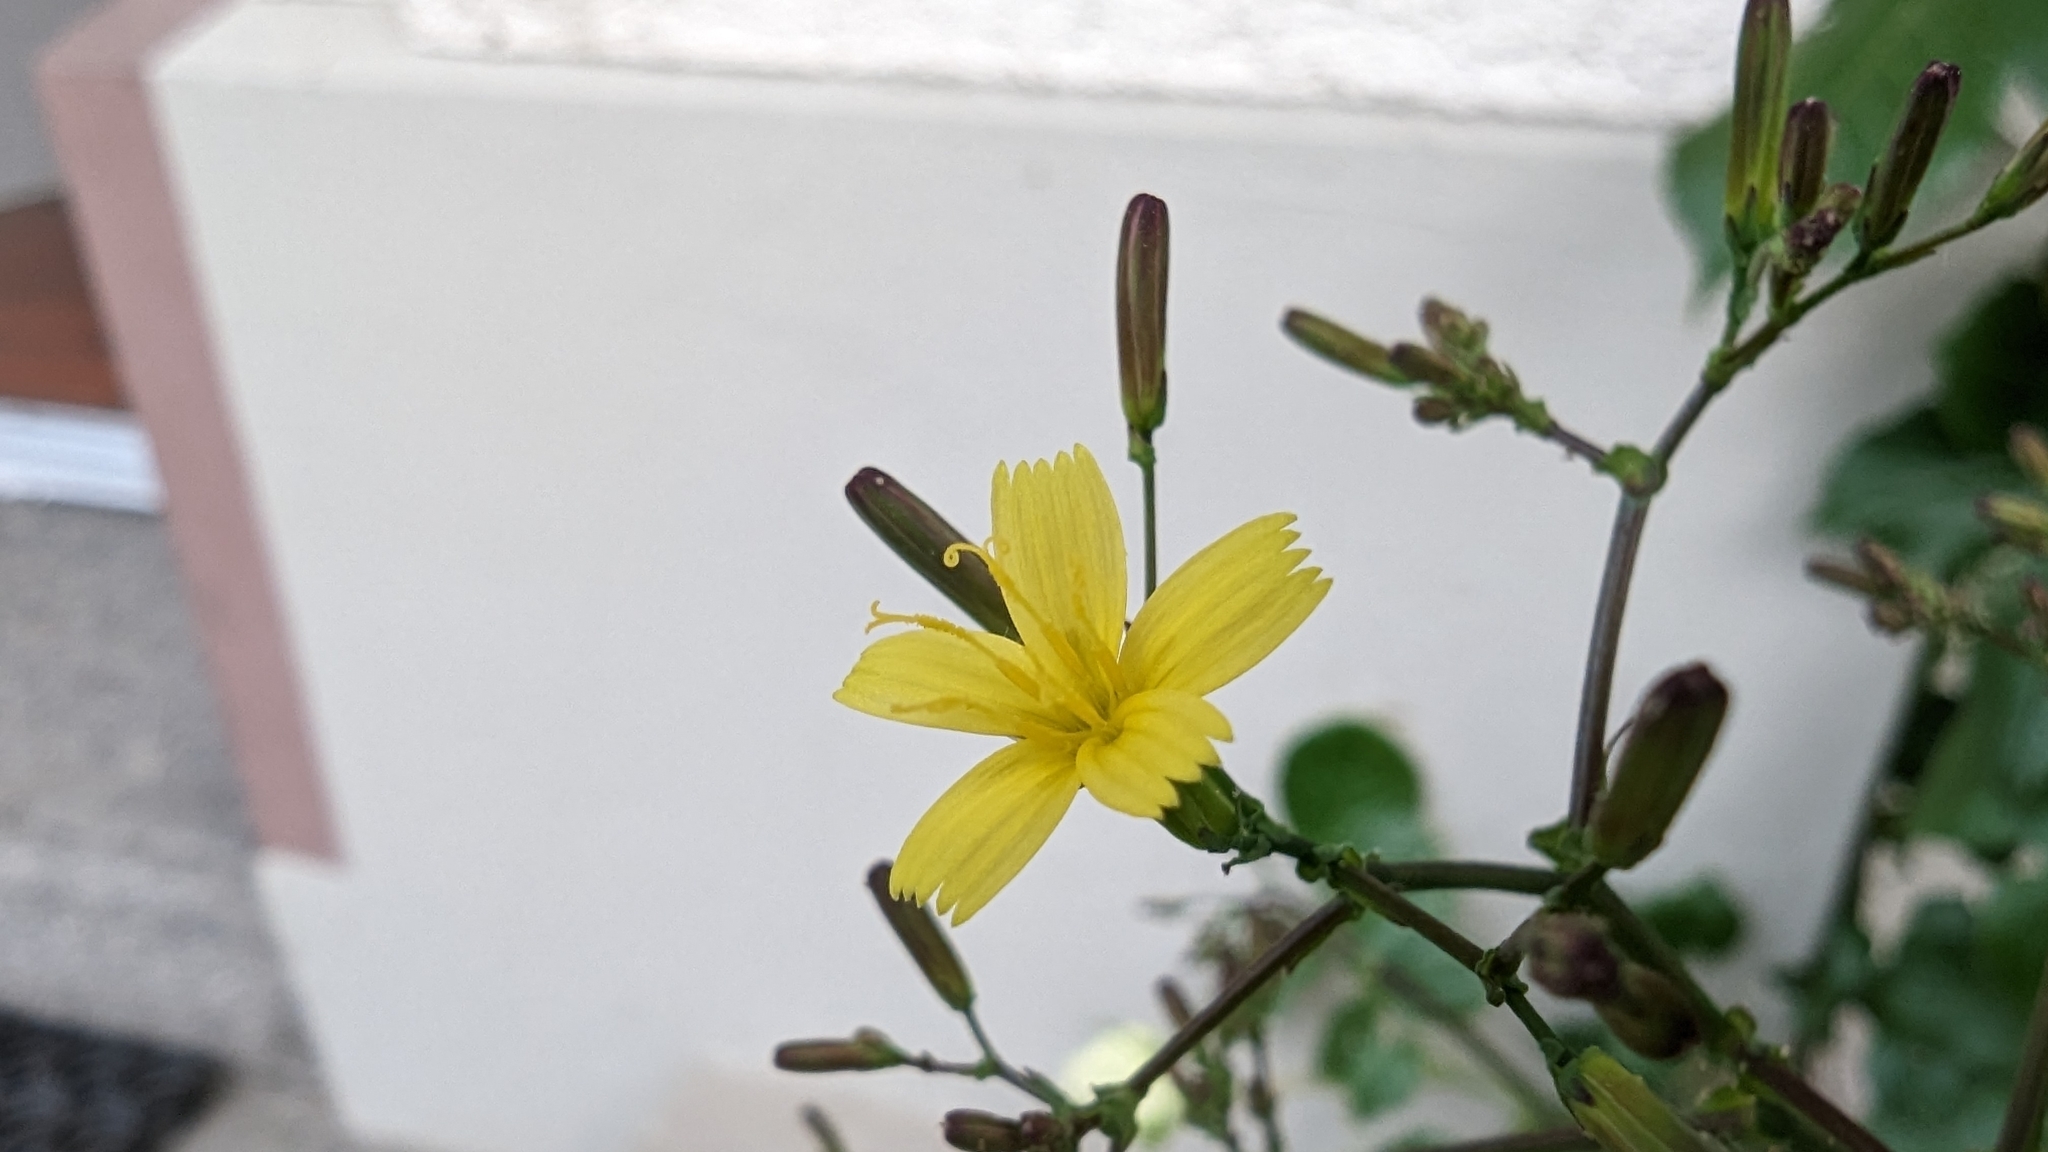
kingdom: Plantae
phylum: Tracheophyta
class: Magnoliopsida
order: Asterales
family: Asteraceae
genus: Mycelis
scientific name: Mycelis muralis
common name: Wall lettuce
